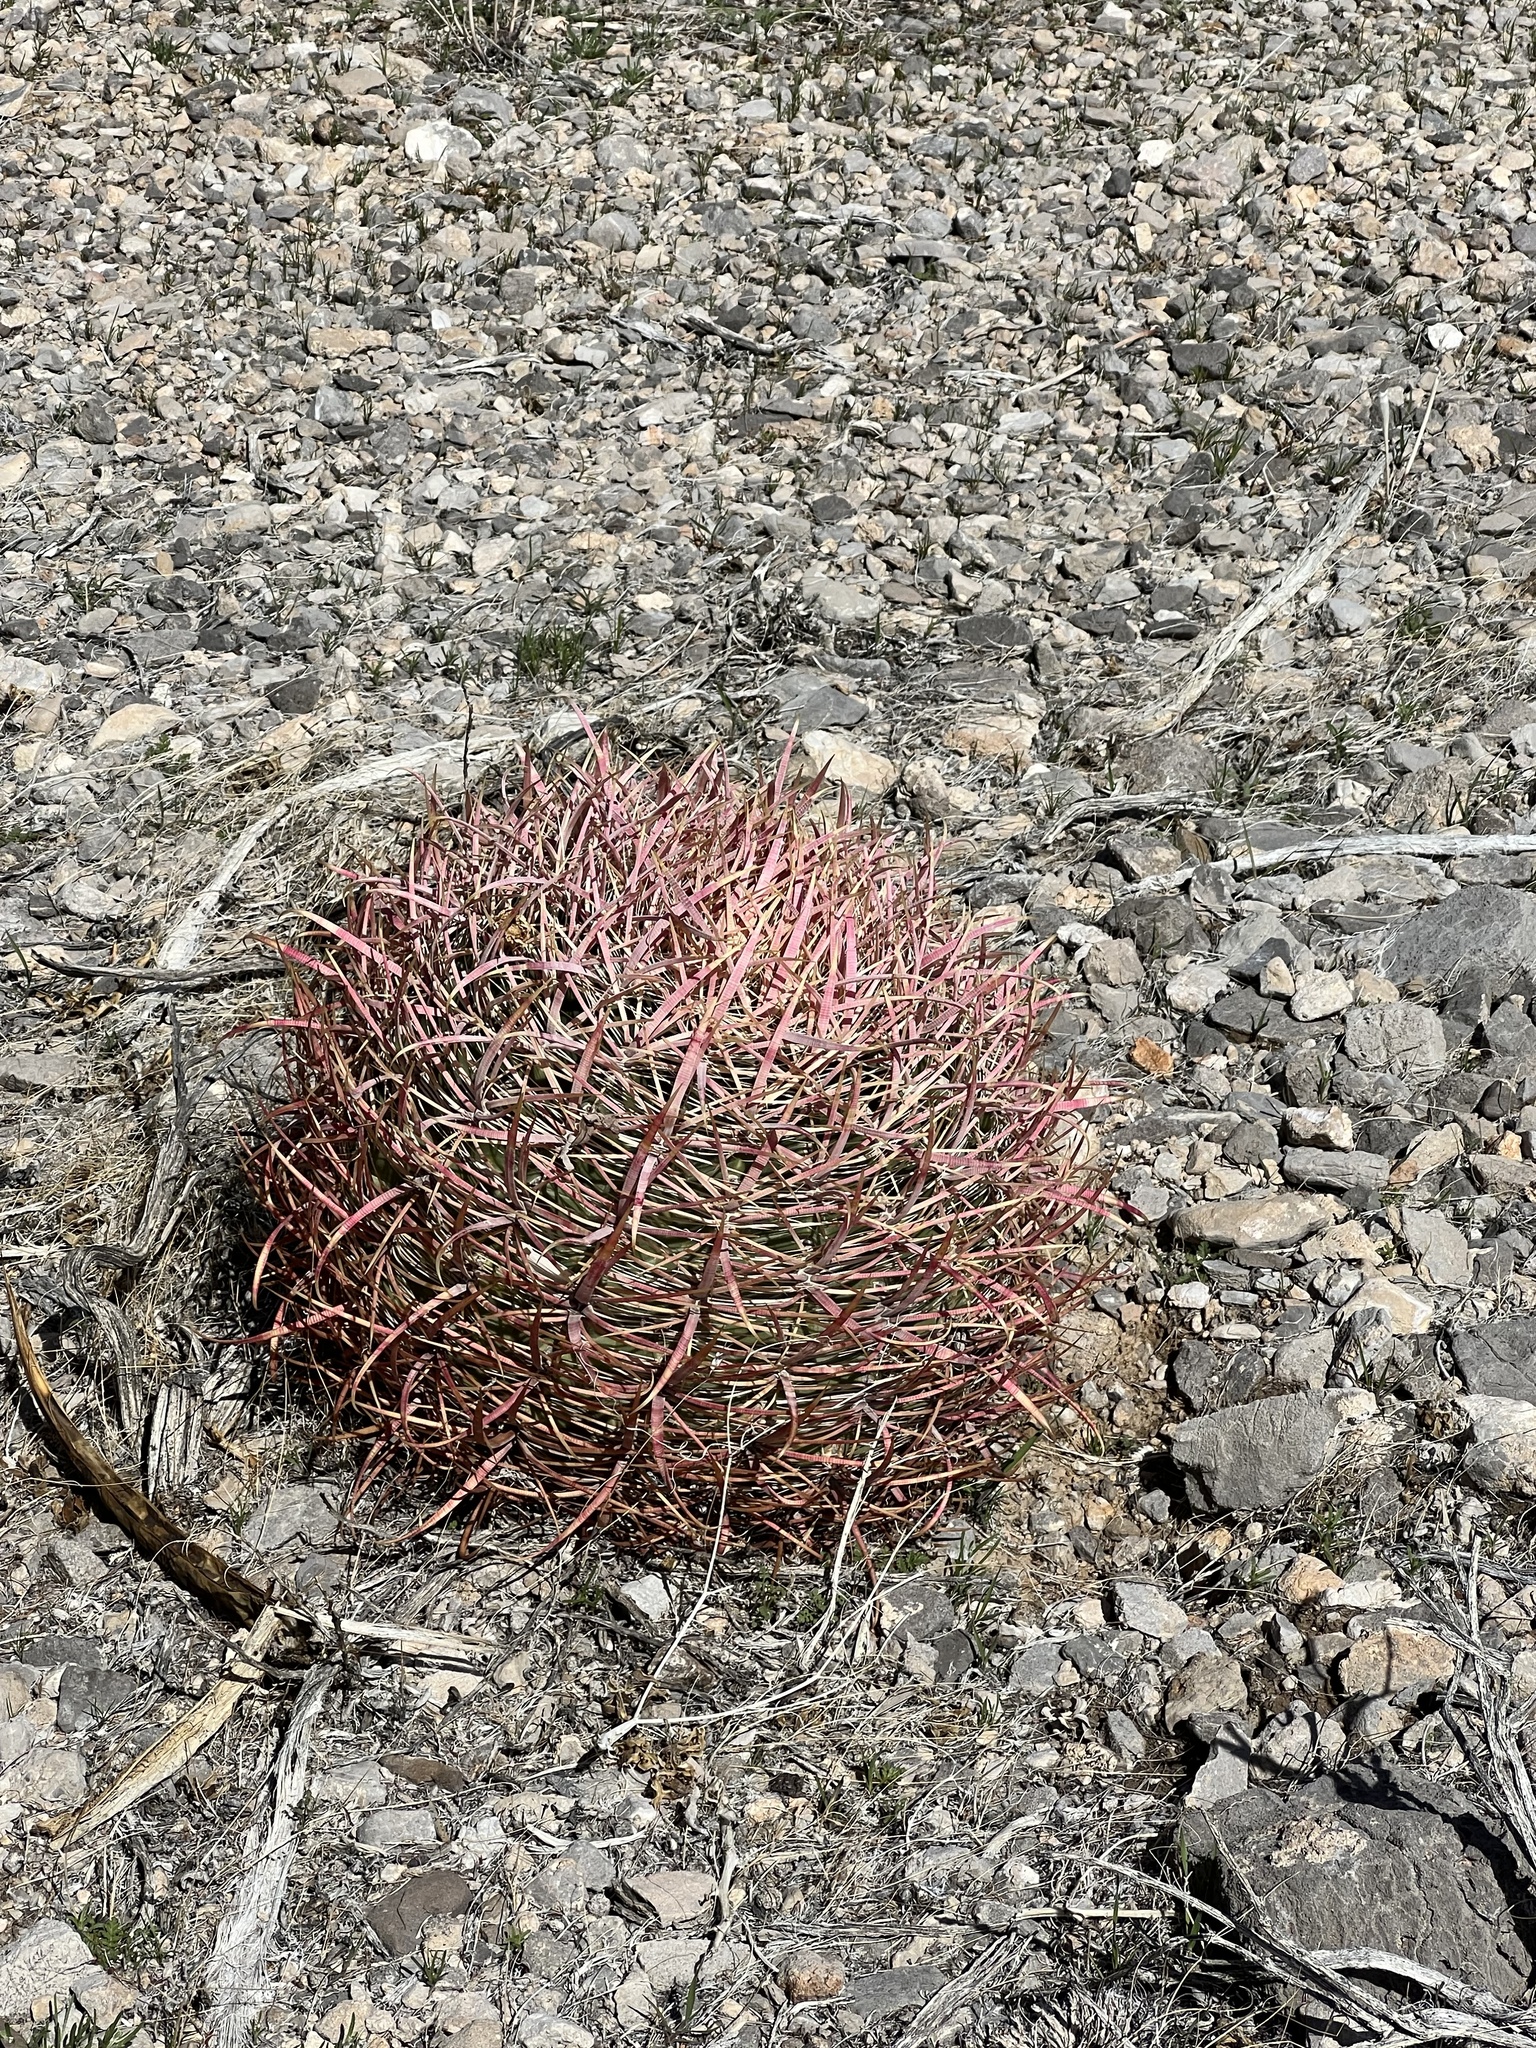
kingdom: Plantae
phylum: Tracheophyta
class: Magnoliopsida
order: Caryophyllales
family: Cactaceae
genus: Ferocactus
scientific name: Ferocactus cylindraceus
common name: California barrel cactus
